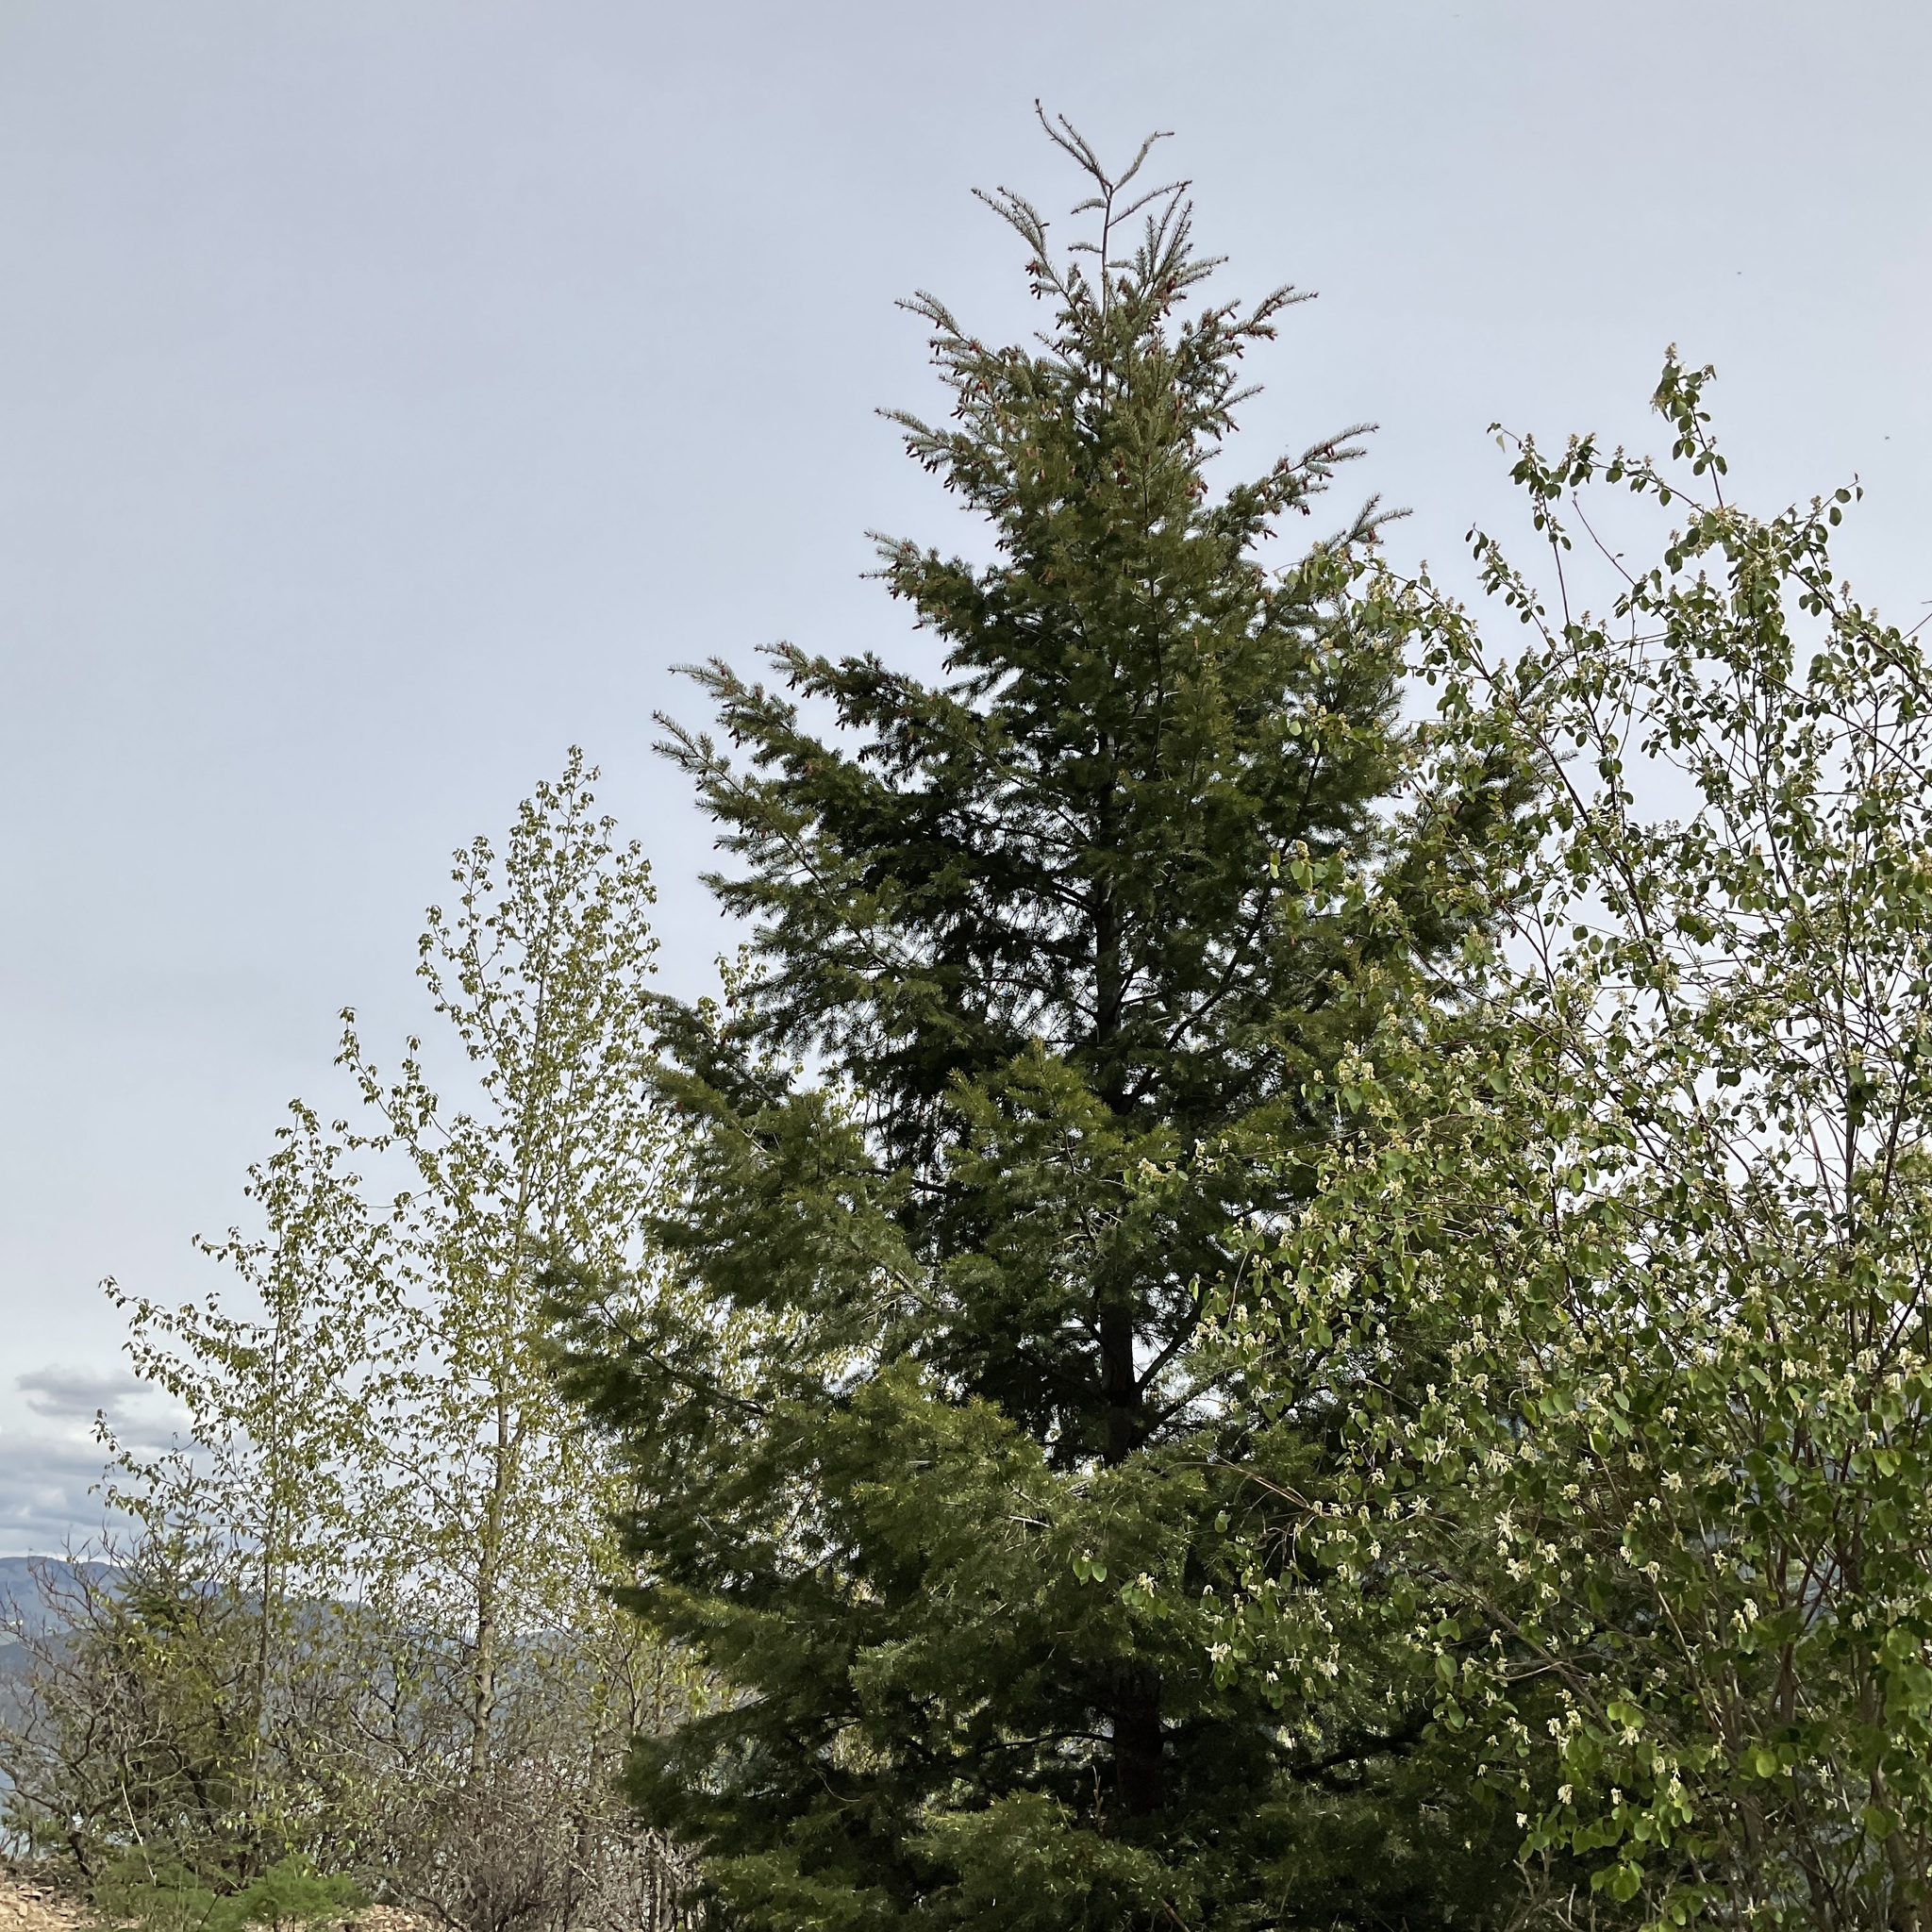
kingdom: Plantae
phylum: Tracheophyta
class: Pinopsida
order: Pinales
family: Pinaceae
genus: Pseudotsuga
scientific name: Pseudotsuga menziesii
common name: Douglas fir
